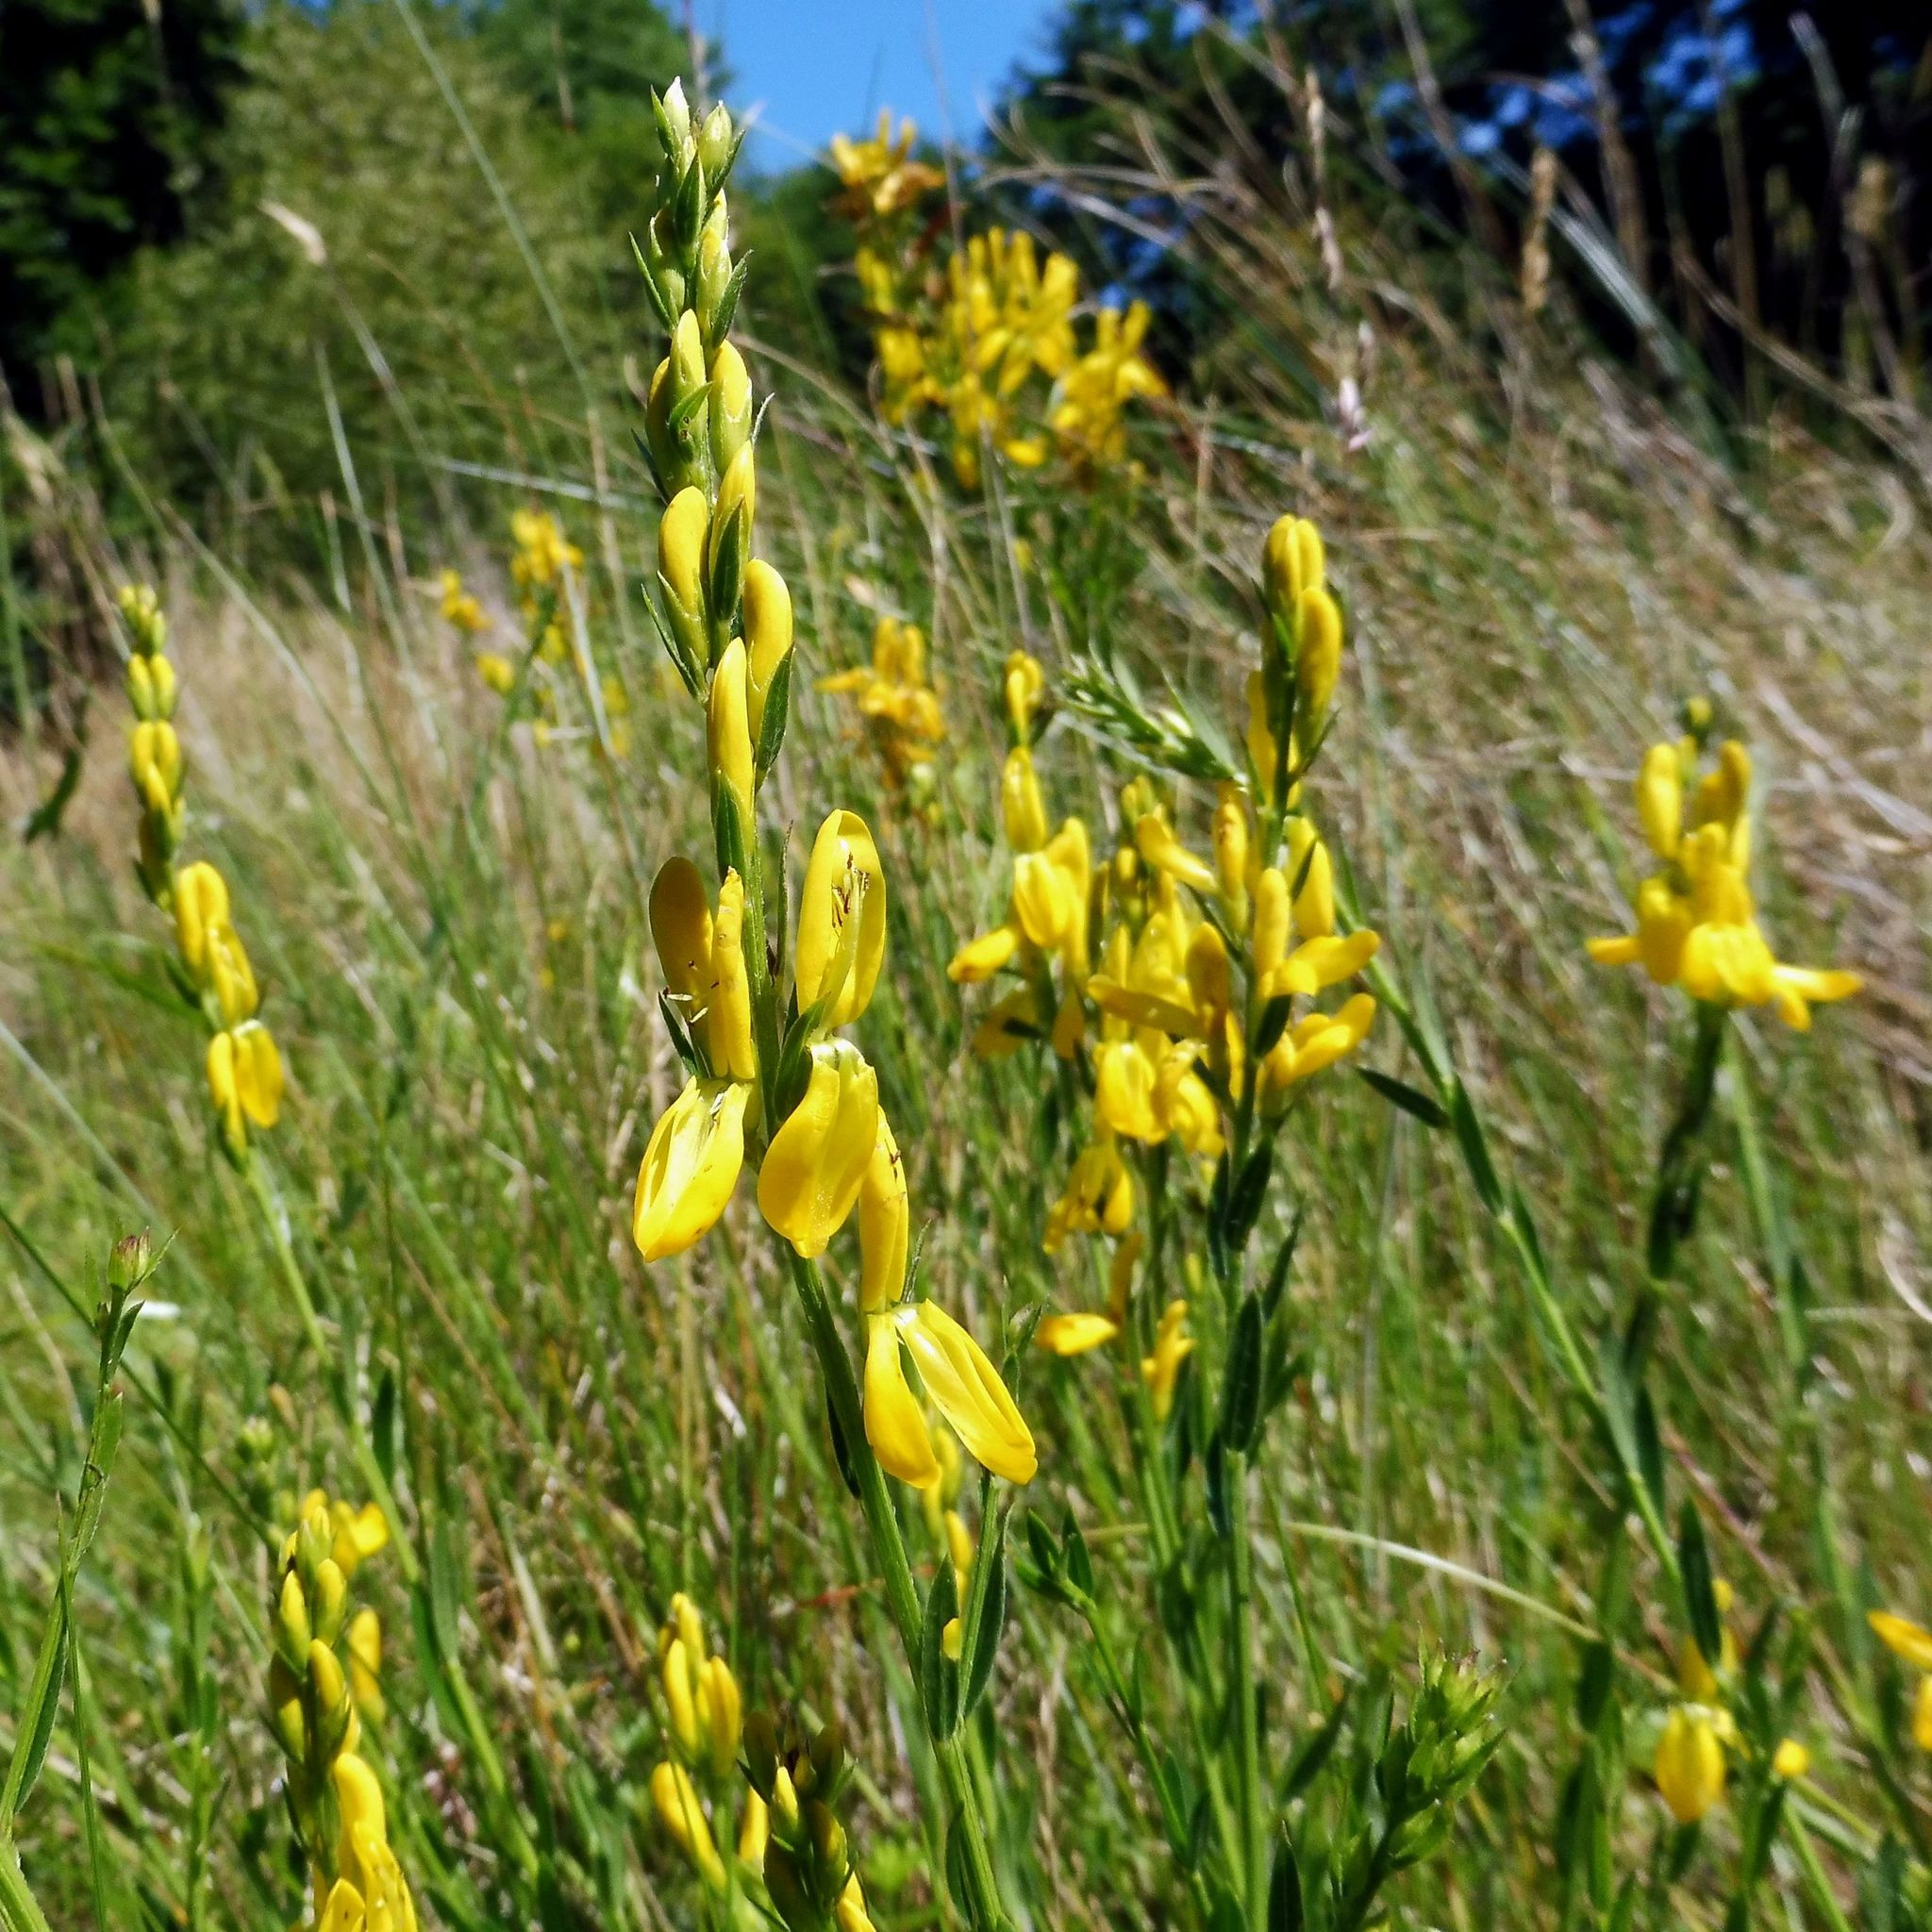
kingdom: Plantae
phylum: Tracheophyta
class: Magnoliopsida
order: Fabales
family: Fabaceae
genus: Genista
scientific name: Genista tinctoria
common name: Dyer's greenweed
